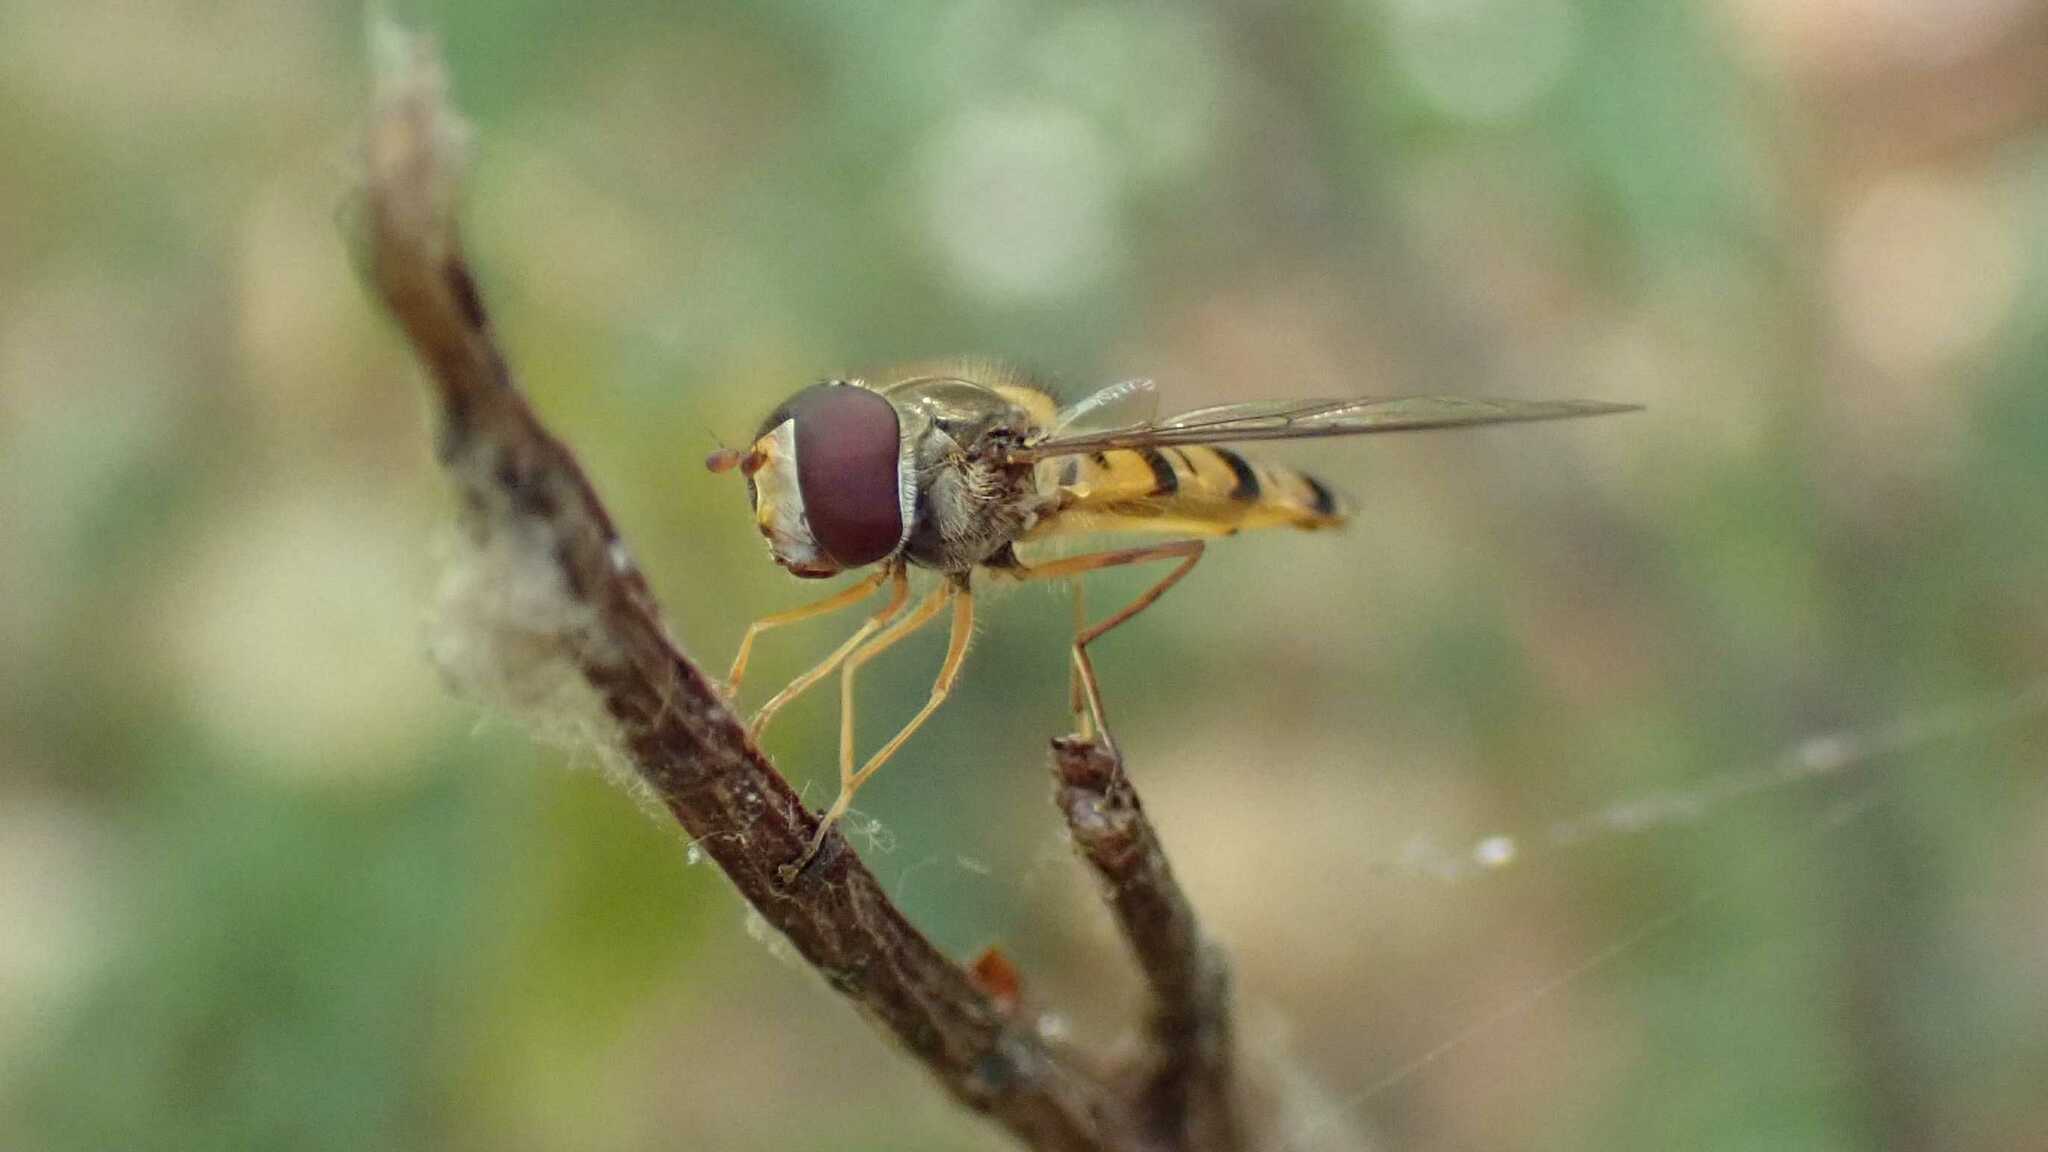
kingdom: Animalia
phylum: Arthropoda
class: Insecta
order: Diptera
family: Syrphidae
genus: Episyrphus
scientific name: Episyrphus balteatus
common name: Marmalade hoverfly
